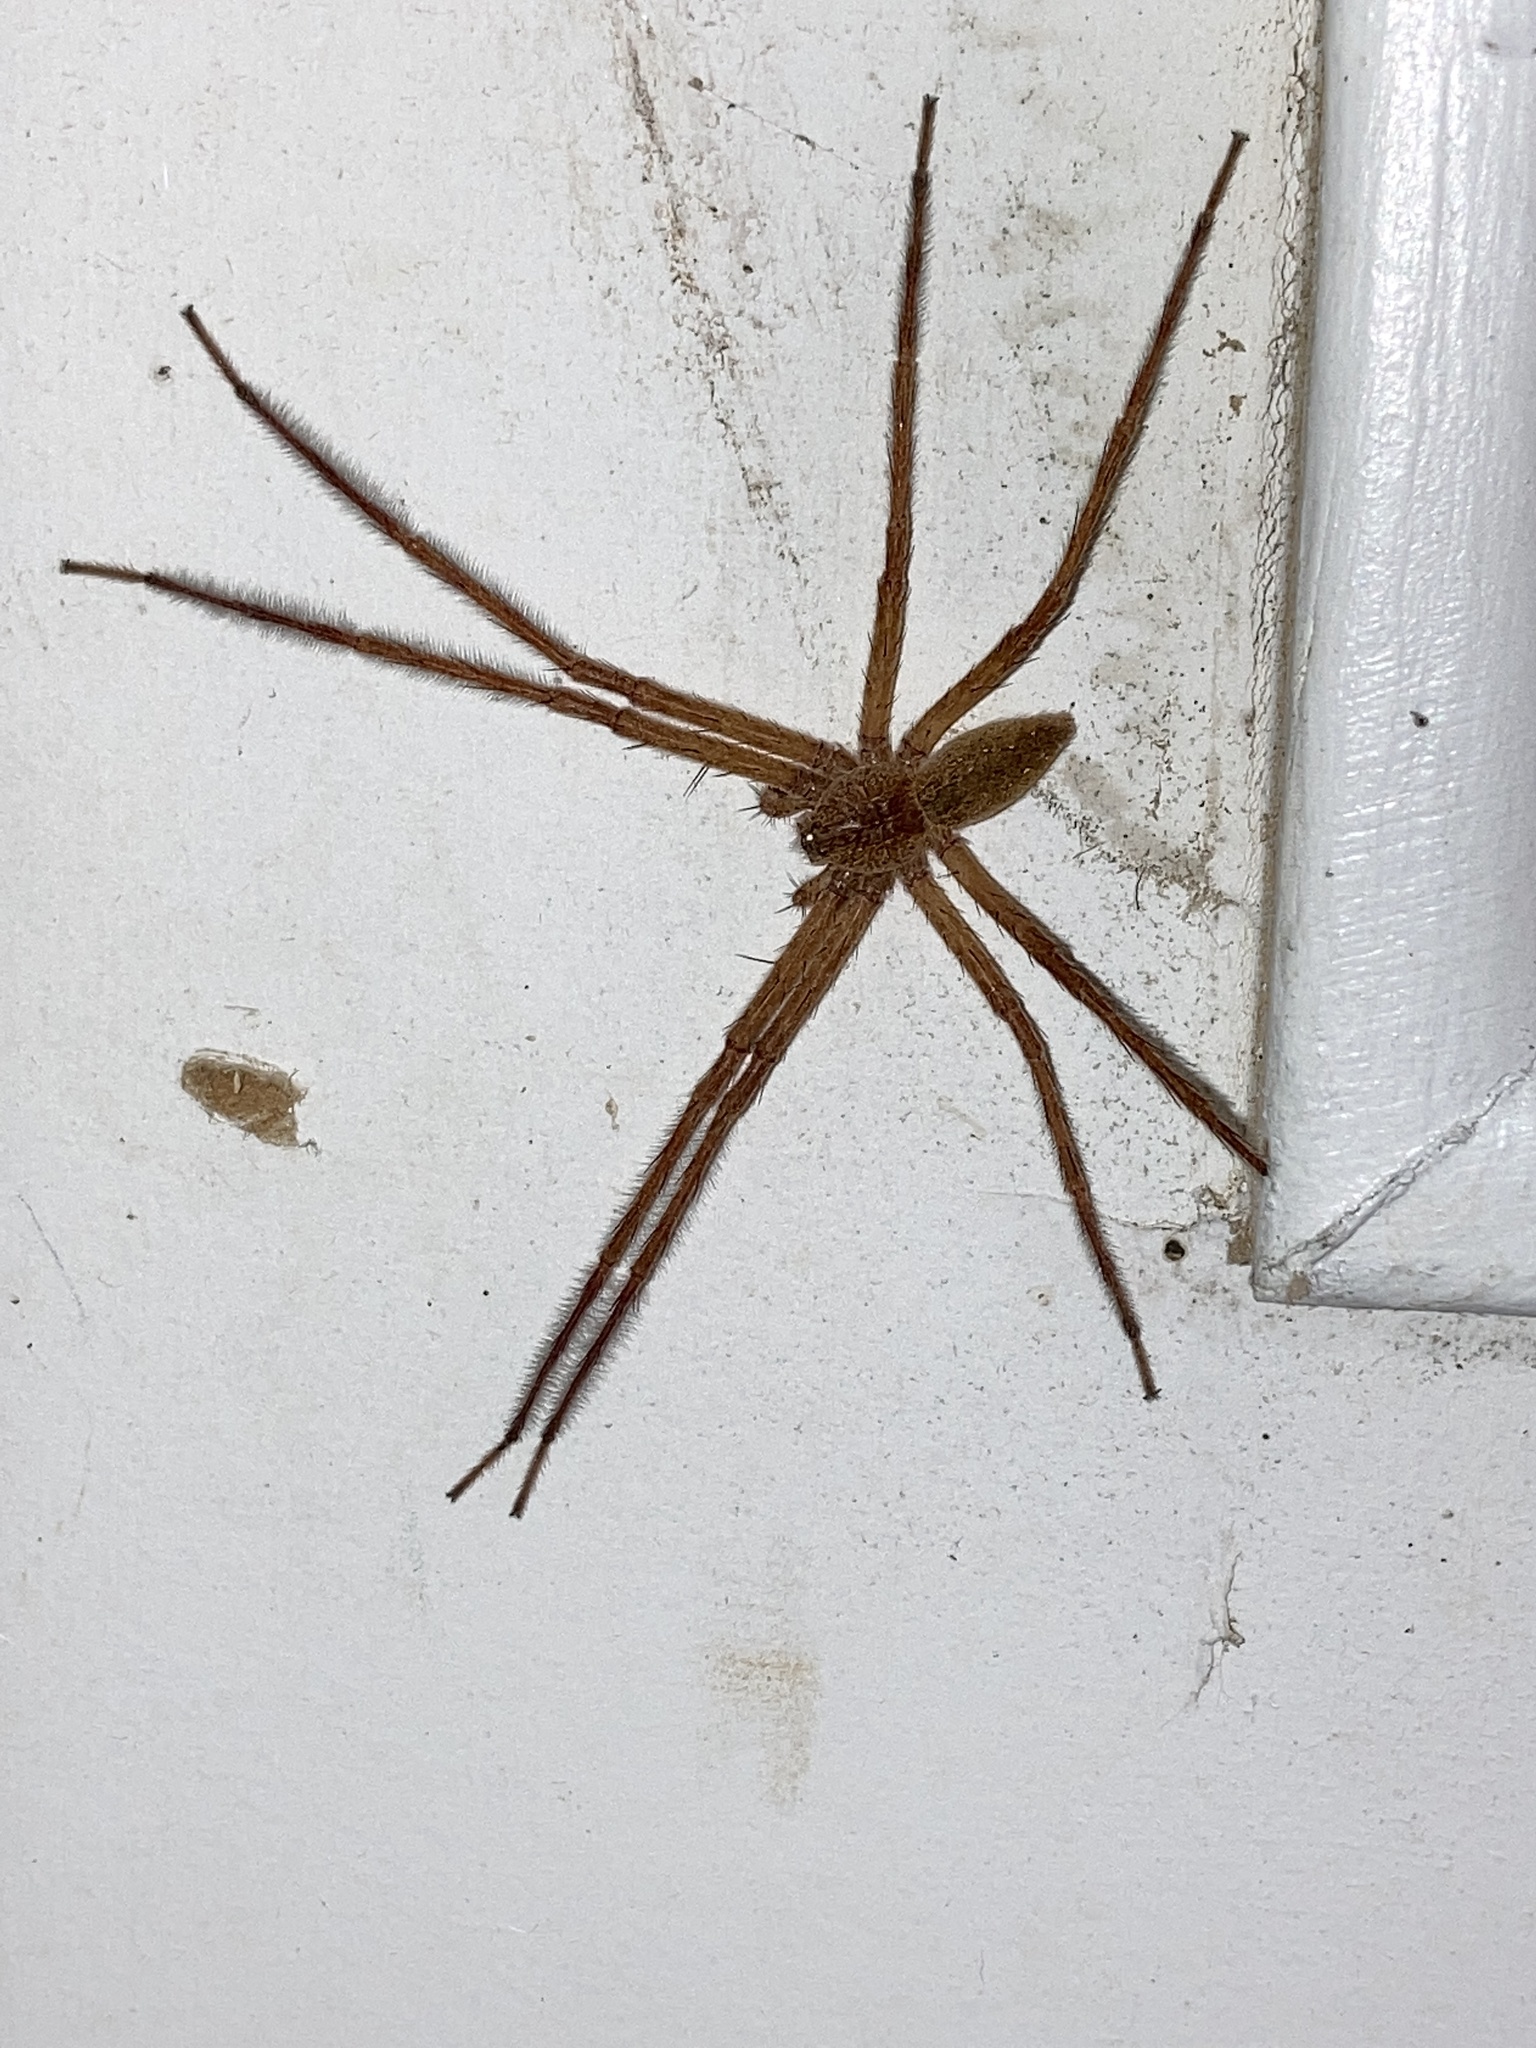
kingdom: Animalia
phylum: Arthropoda
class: Arachnida
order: Araneae
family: Pisauridae
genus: Pisaurina
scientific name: Pisaurina mira
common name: American nursery web spider
